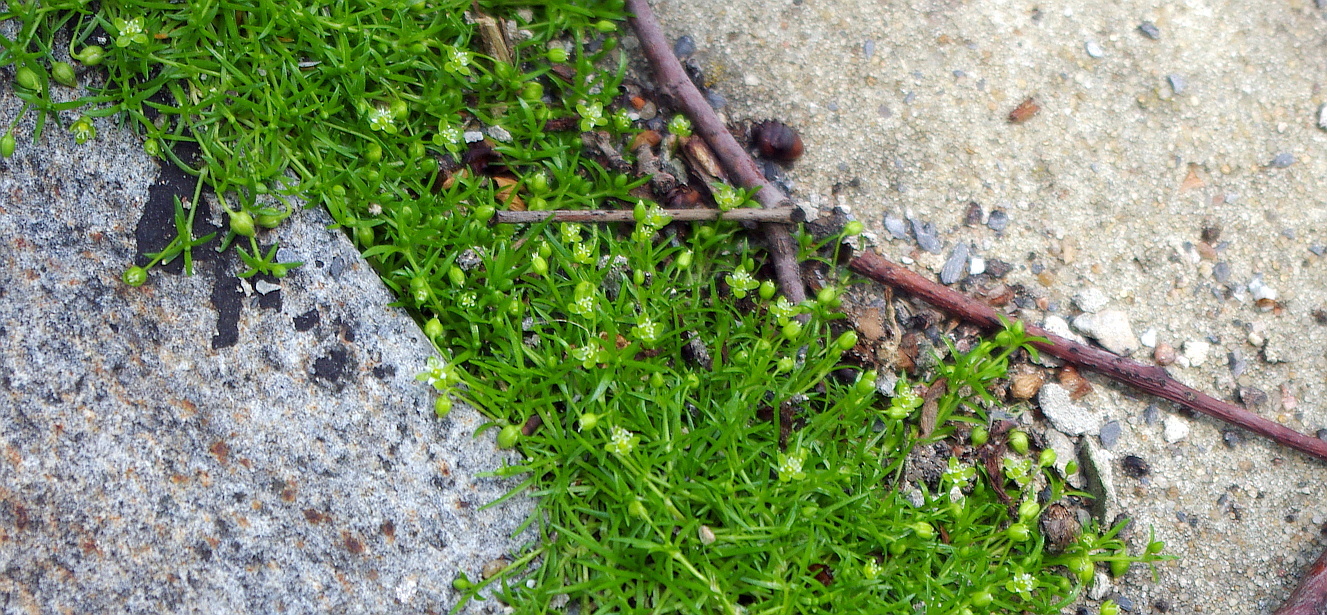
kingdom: Plantae
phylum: Tracheophyta
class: Magnoliopsida
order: Caryophyllales
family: Caryophyllaceae
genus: Sagina
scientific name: Sagina procumbens
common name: Procumbent pearlwort
